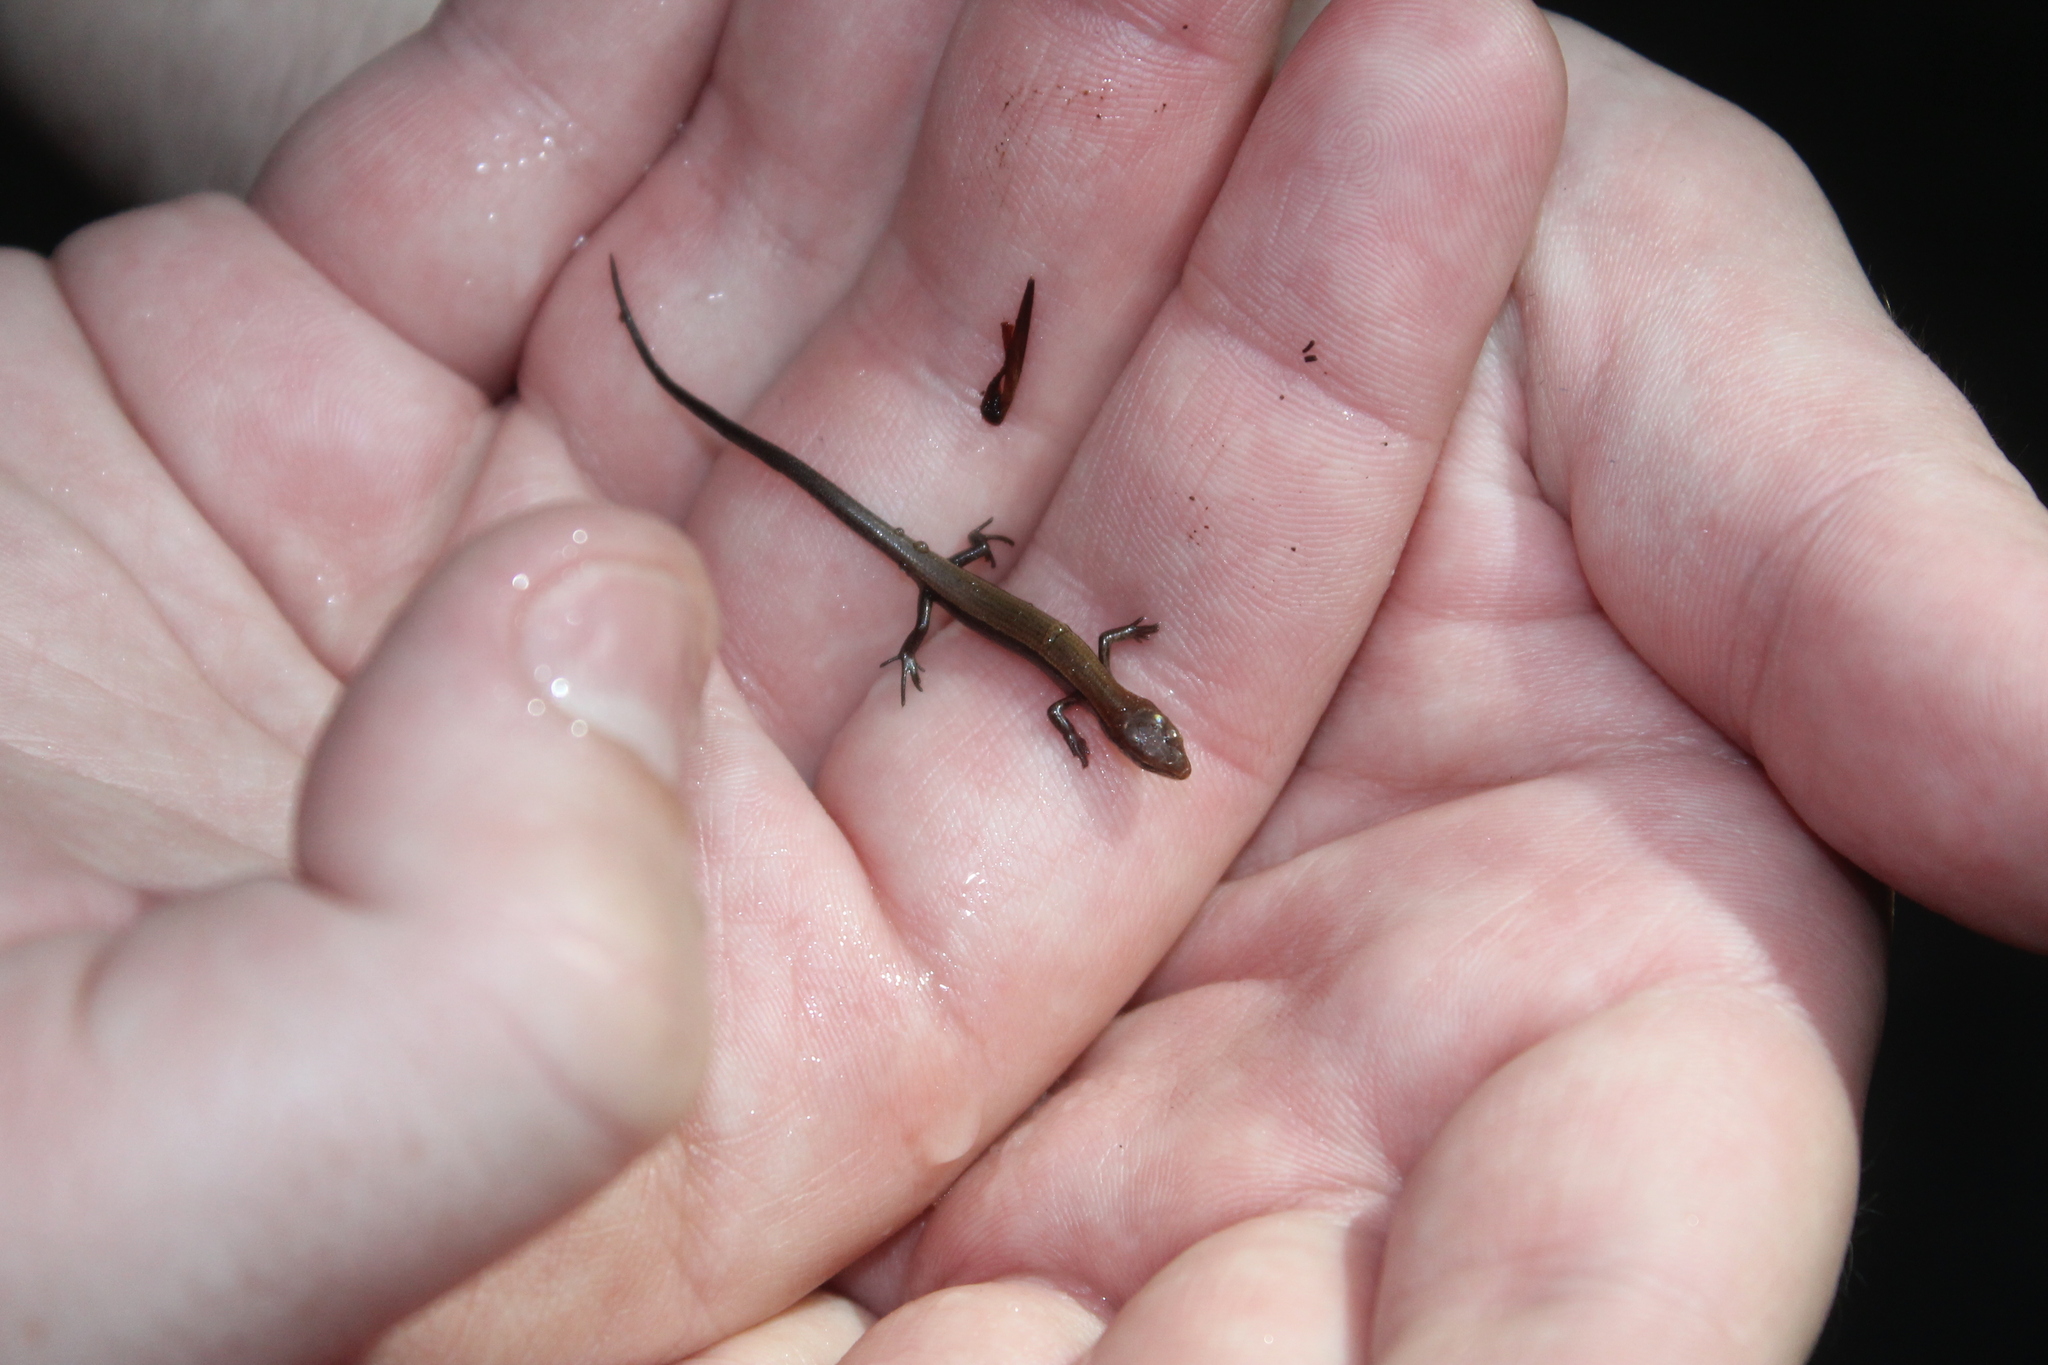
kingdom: Animalia
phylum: Chordata
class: Squamata
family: Scincidae
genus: Scincella
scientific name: Scincella lateralis
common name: Ground skink
